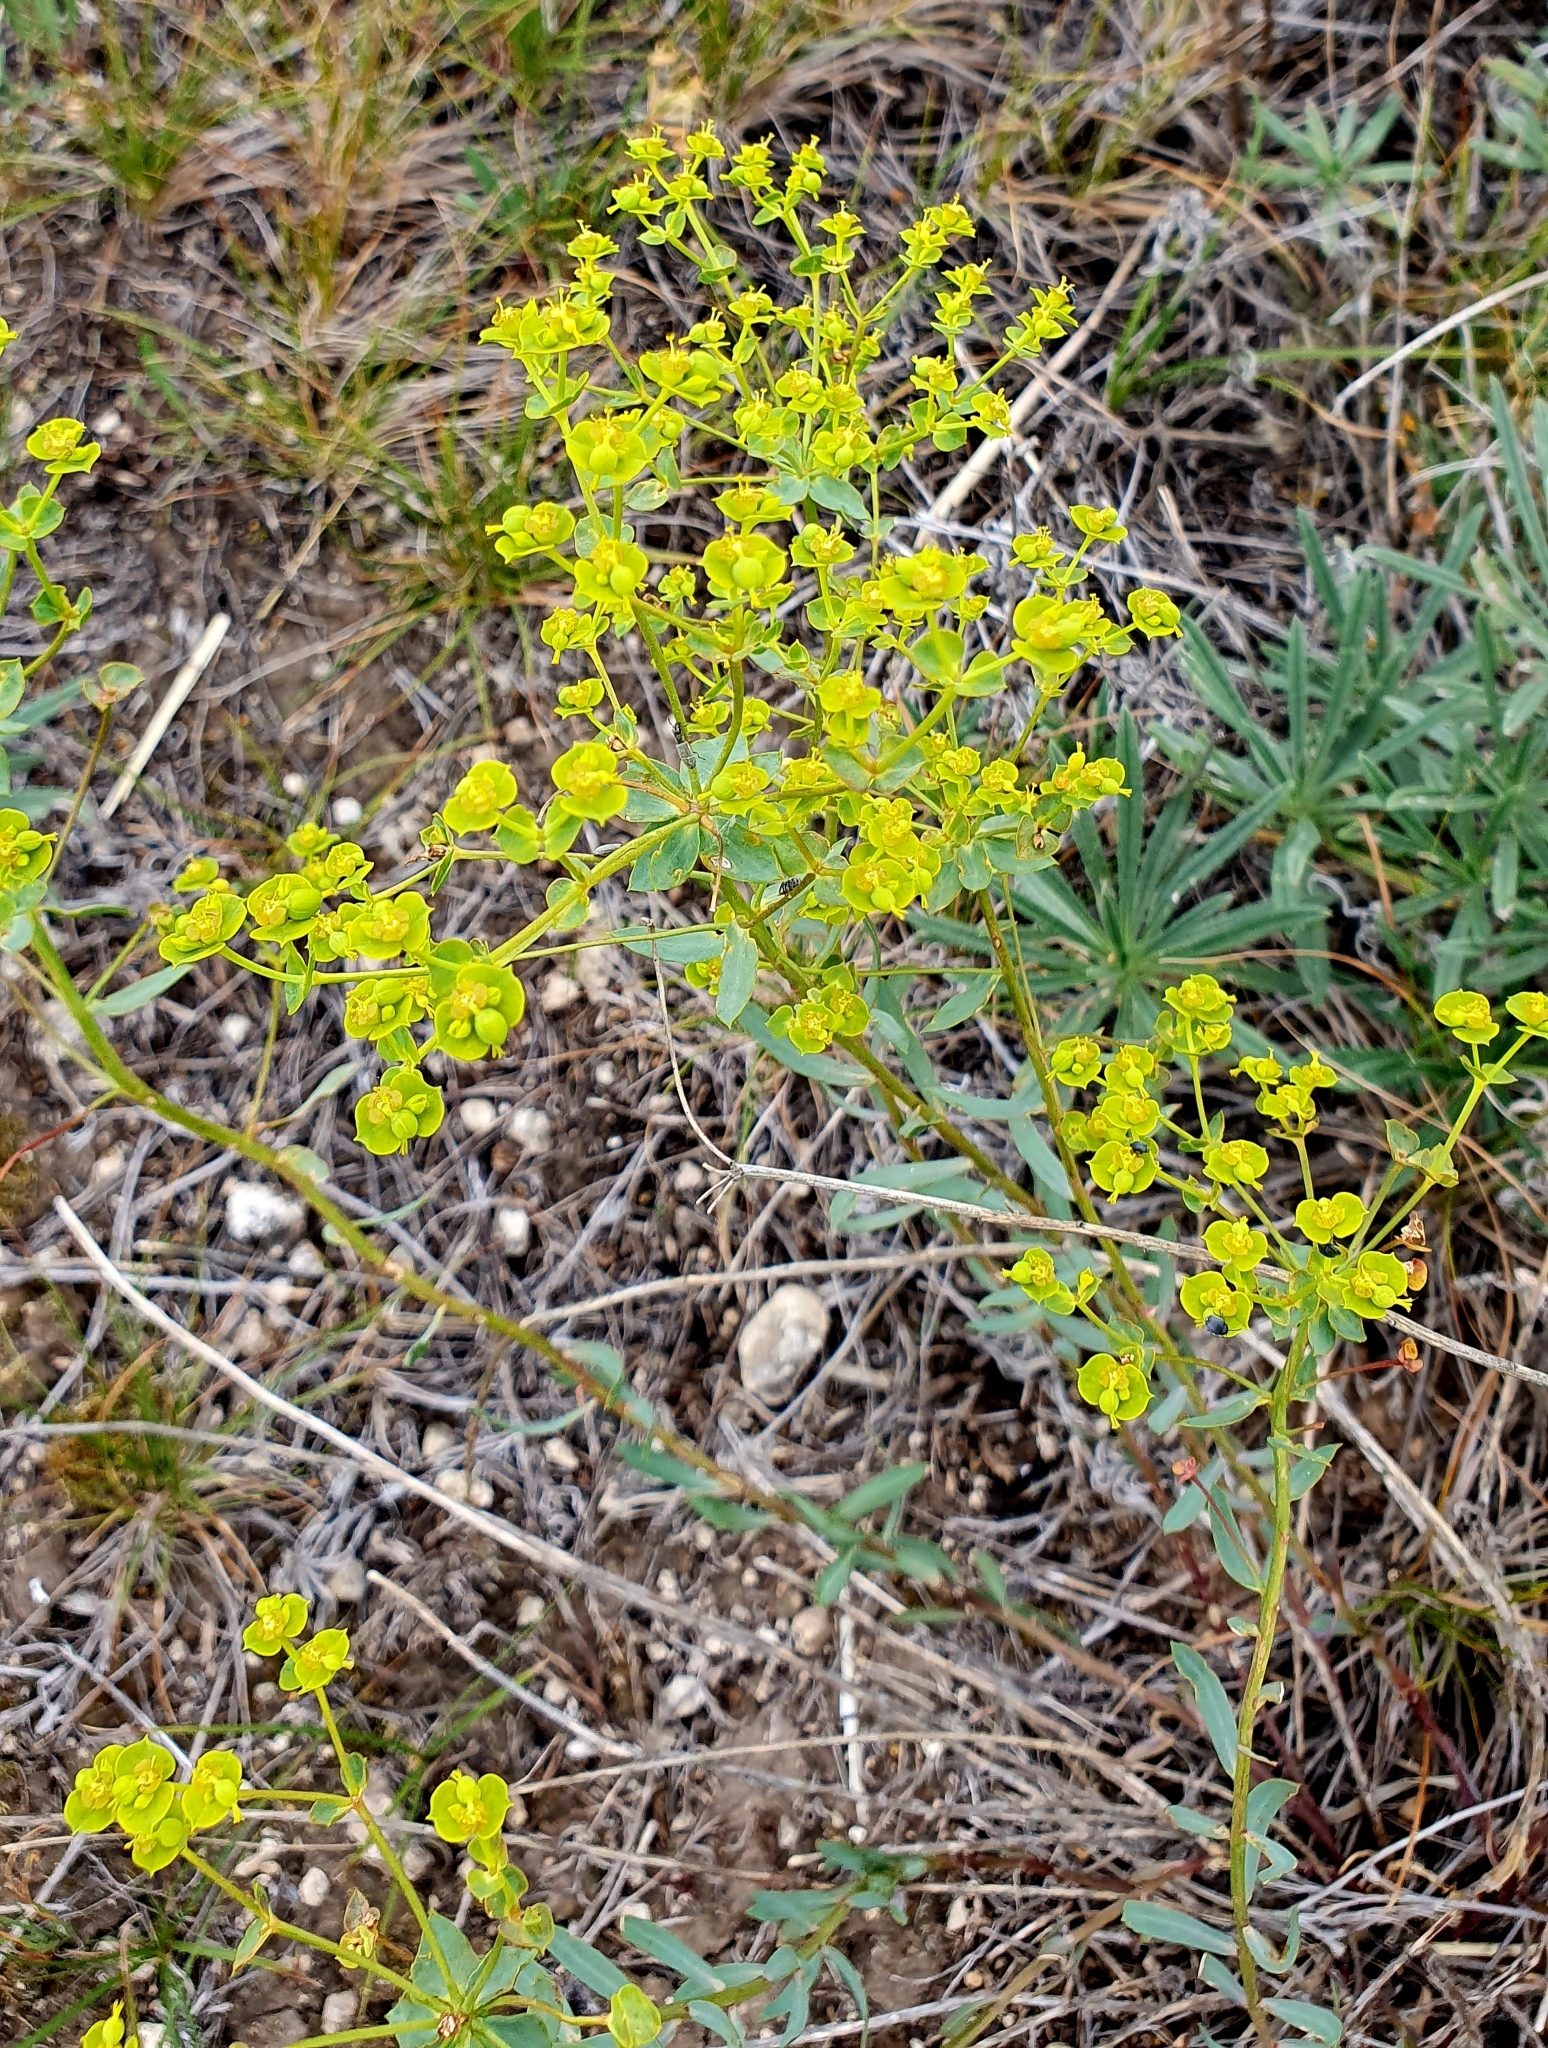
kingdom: Plantae
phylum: Tracheophyta
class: Magnoliopsida
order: Malpighiales
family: Euphorbiaceae
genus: Euphorbia
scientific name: Euphorbia seguieriana
